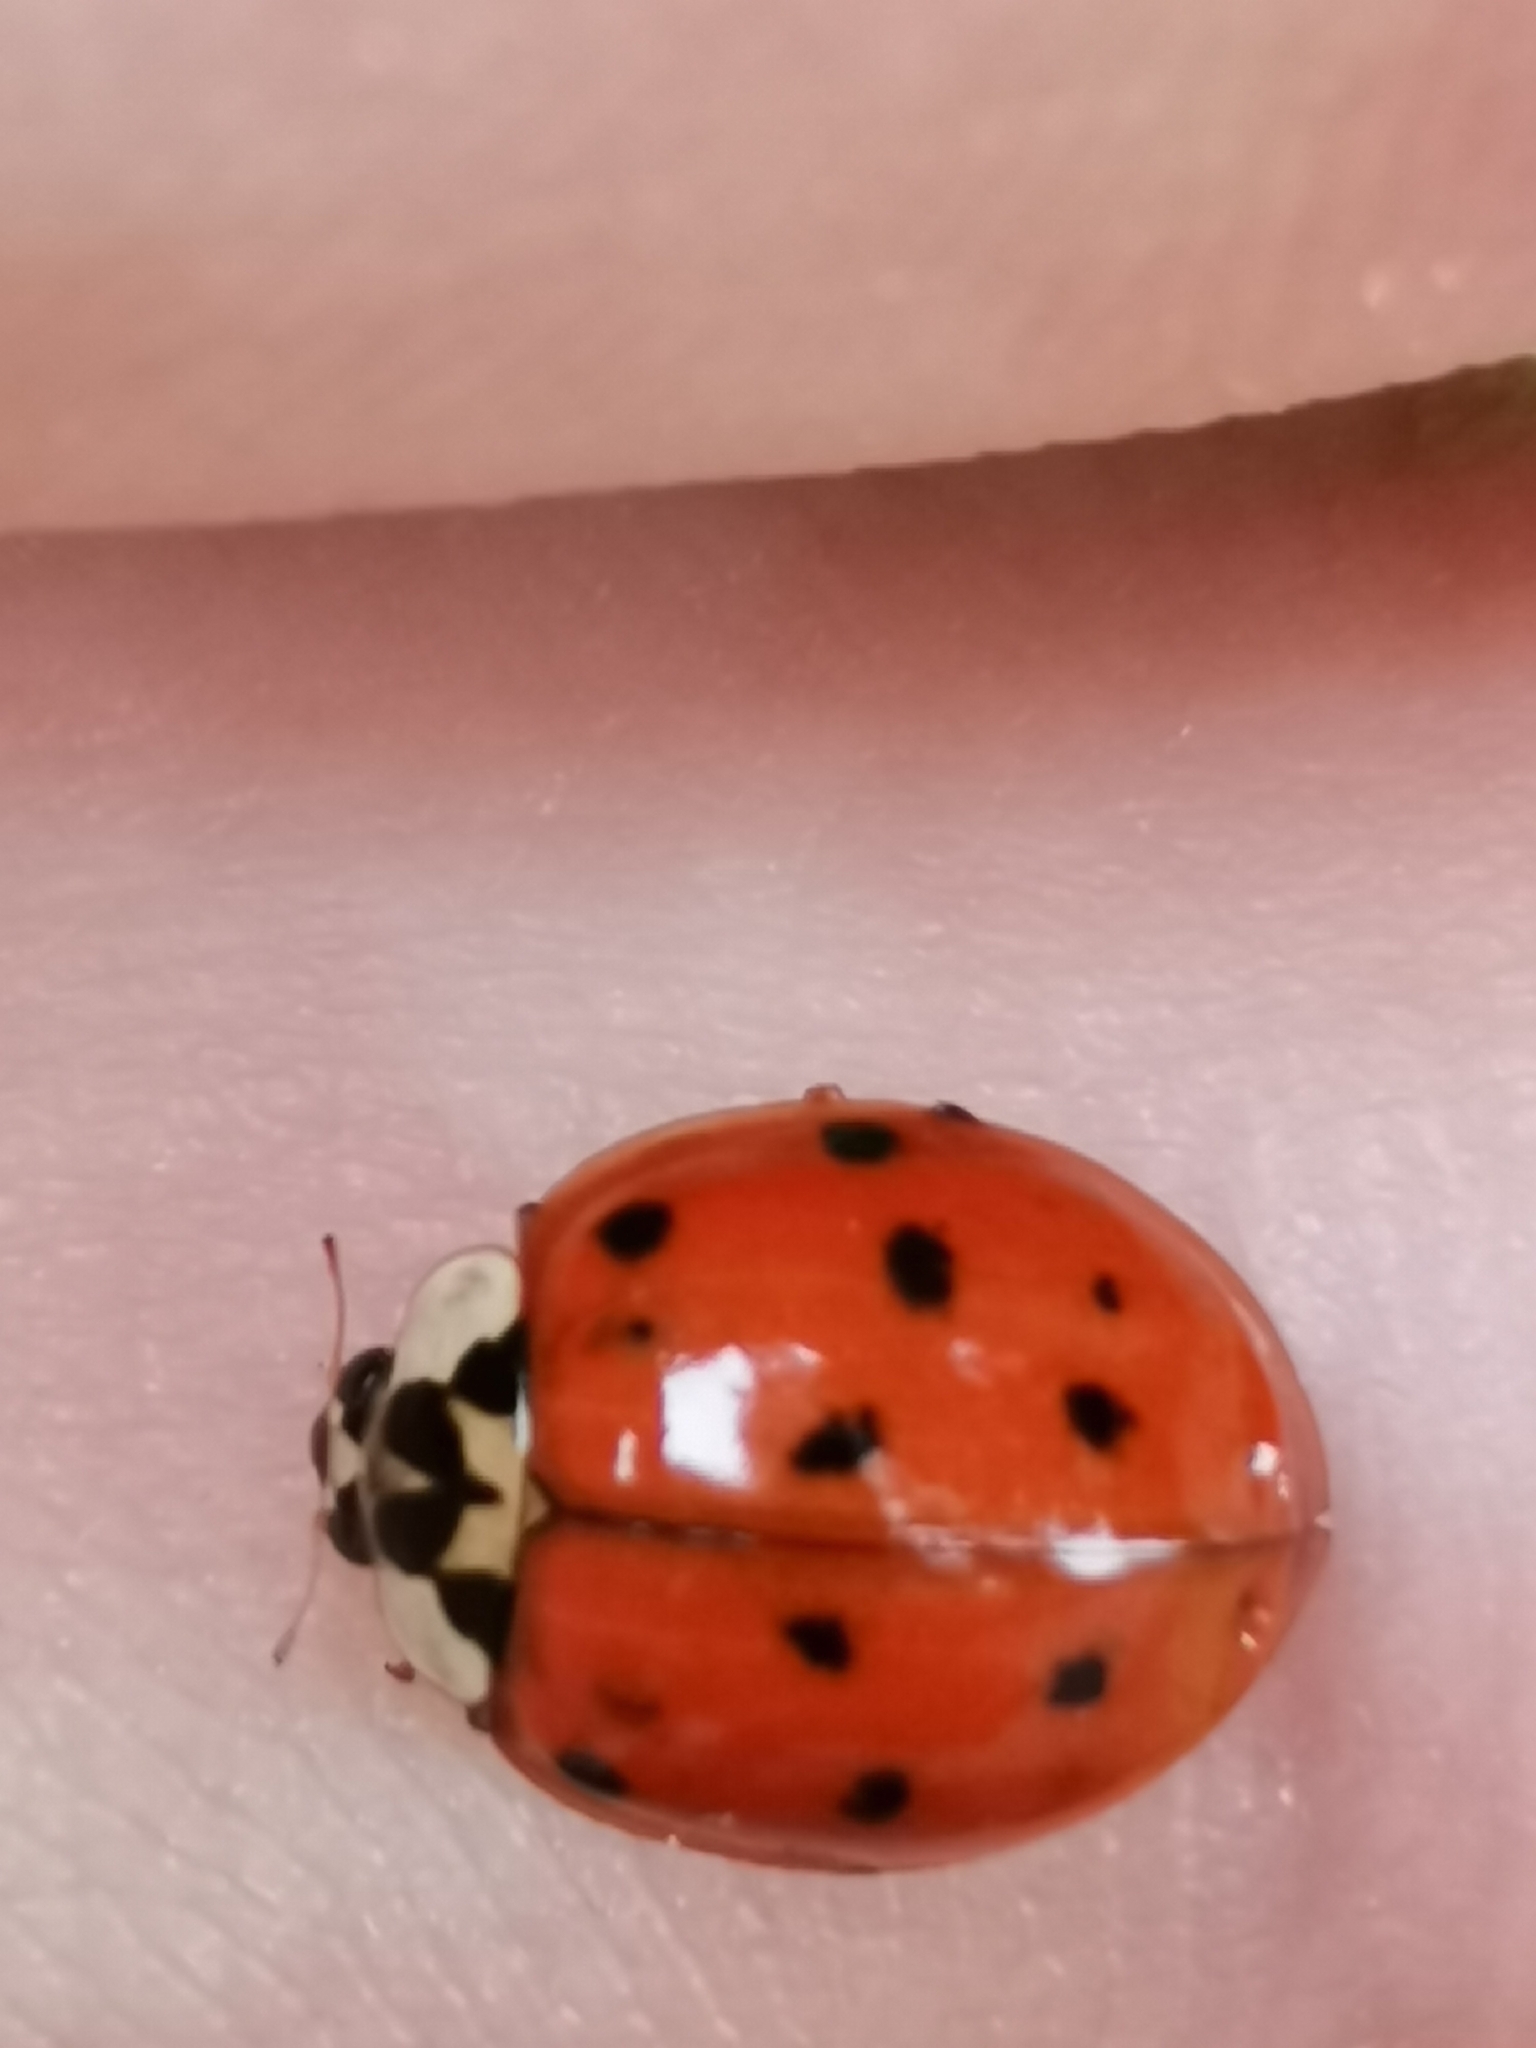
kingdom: Animalia
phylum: Arthropoda
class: Insecta
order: Coleoptera
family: Coccinellidae
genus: Harmonia
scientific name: Harmonia axyridis
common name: Harlequin ladybird
